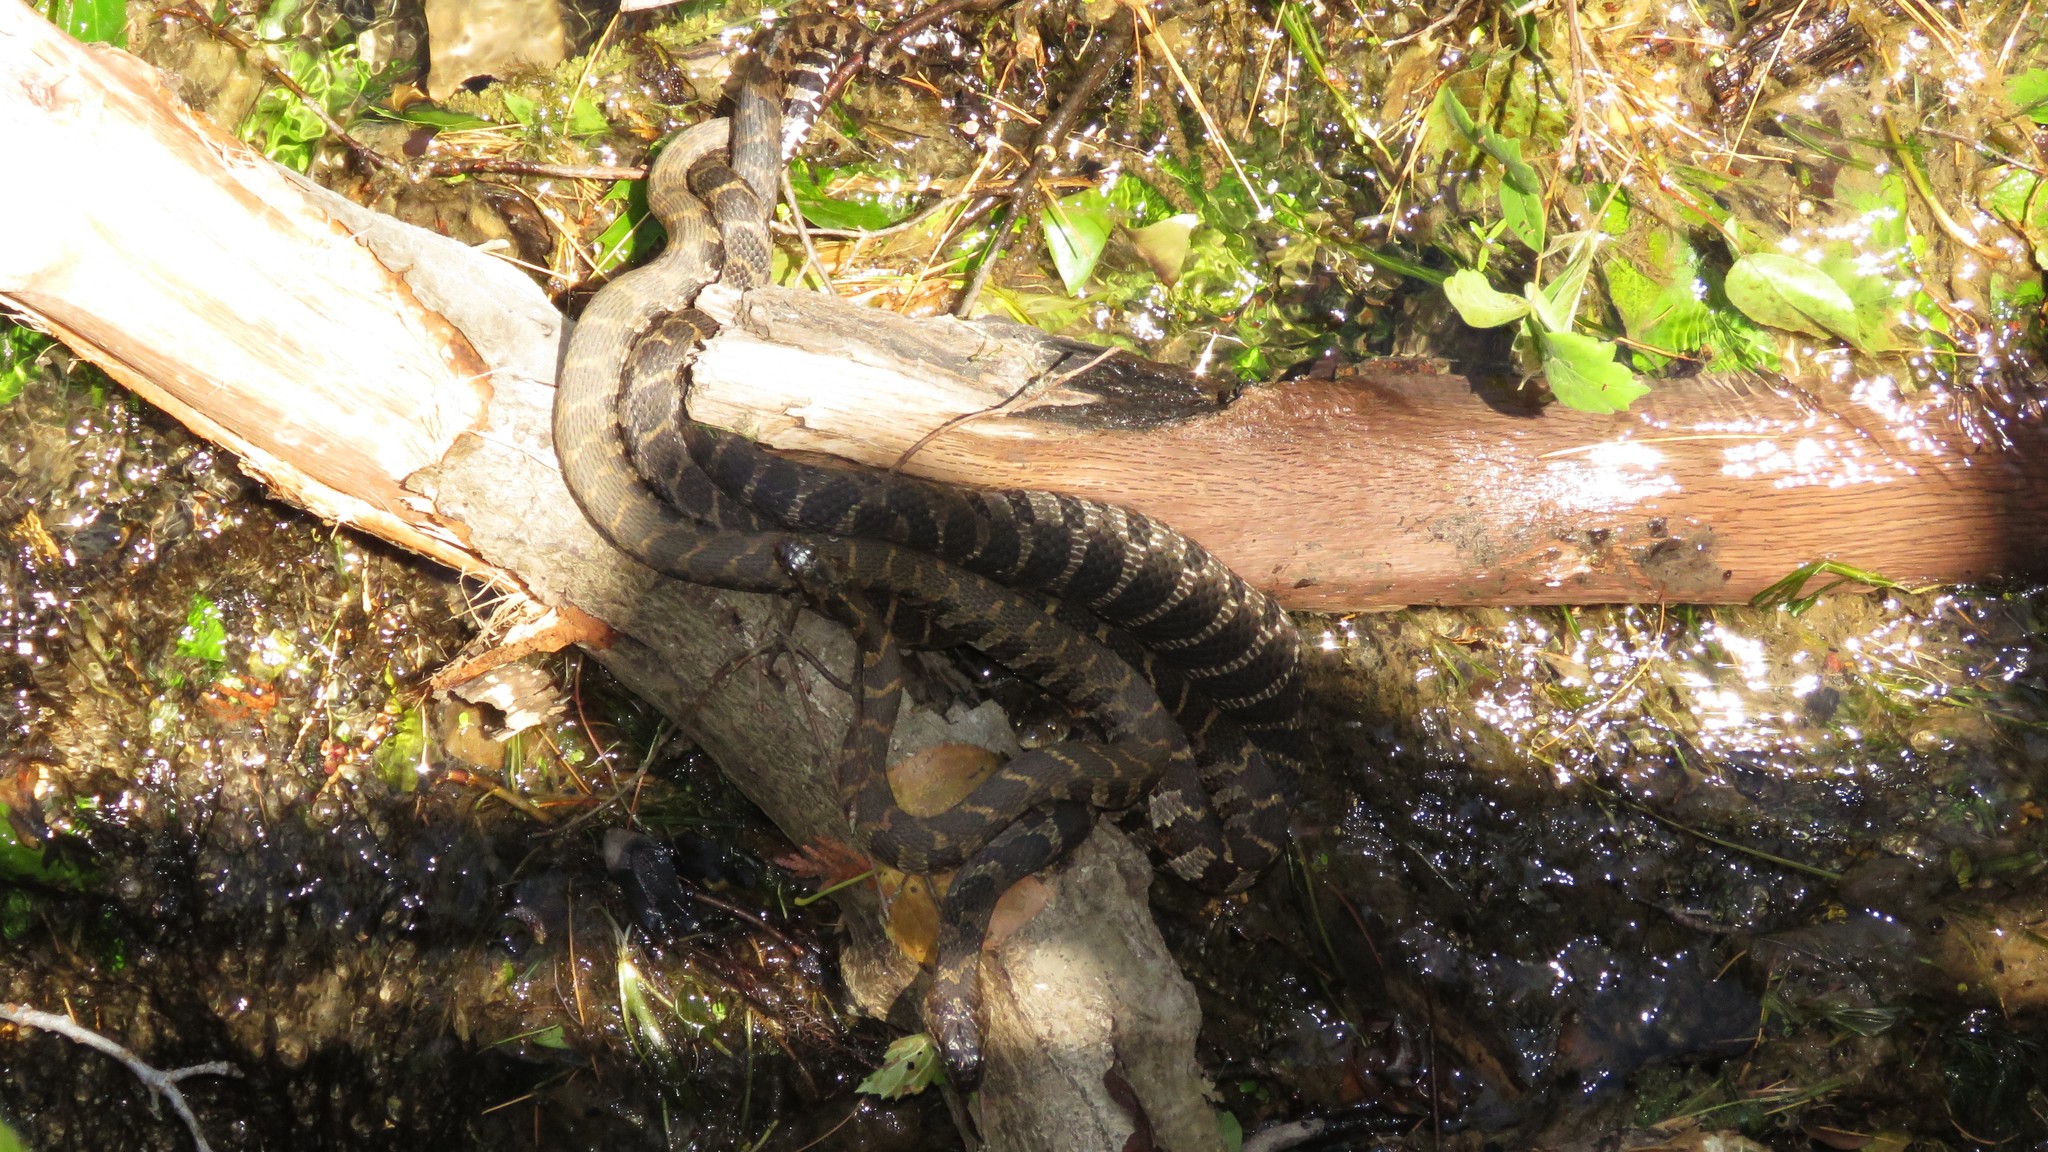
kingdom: Animalia
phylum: Chordata
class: Squamata
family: Colubridae
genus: Nerodia
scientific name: Nerodia sipedon
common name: Northern water snake
